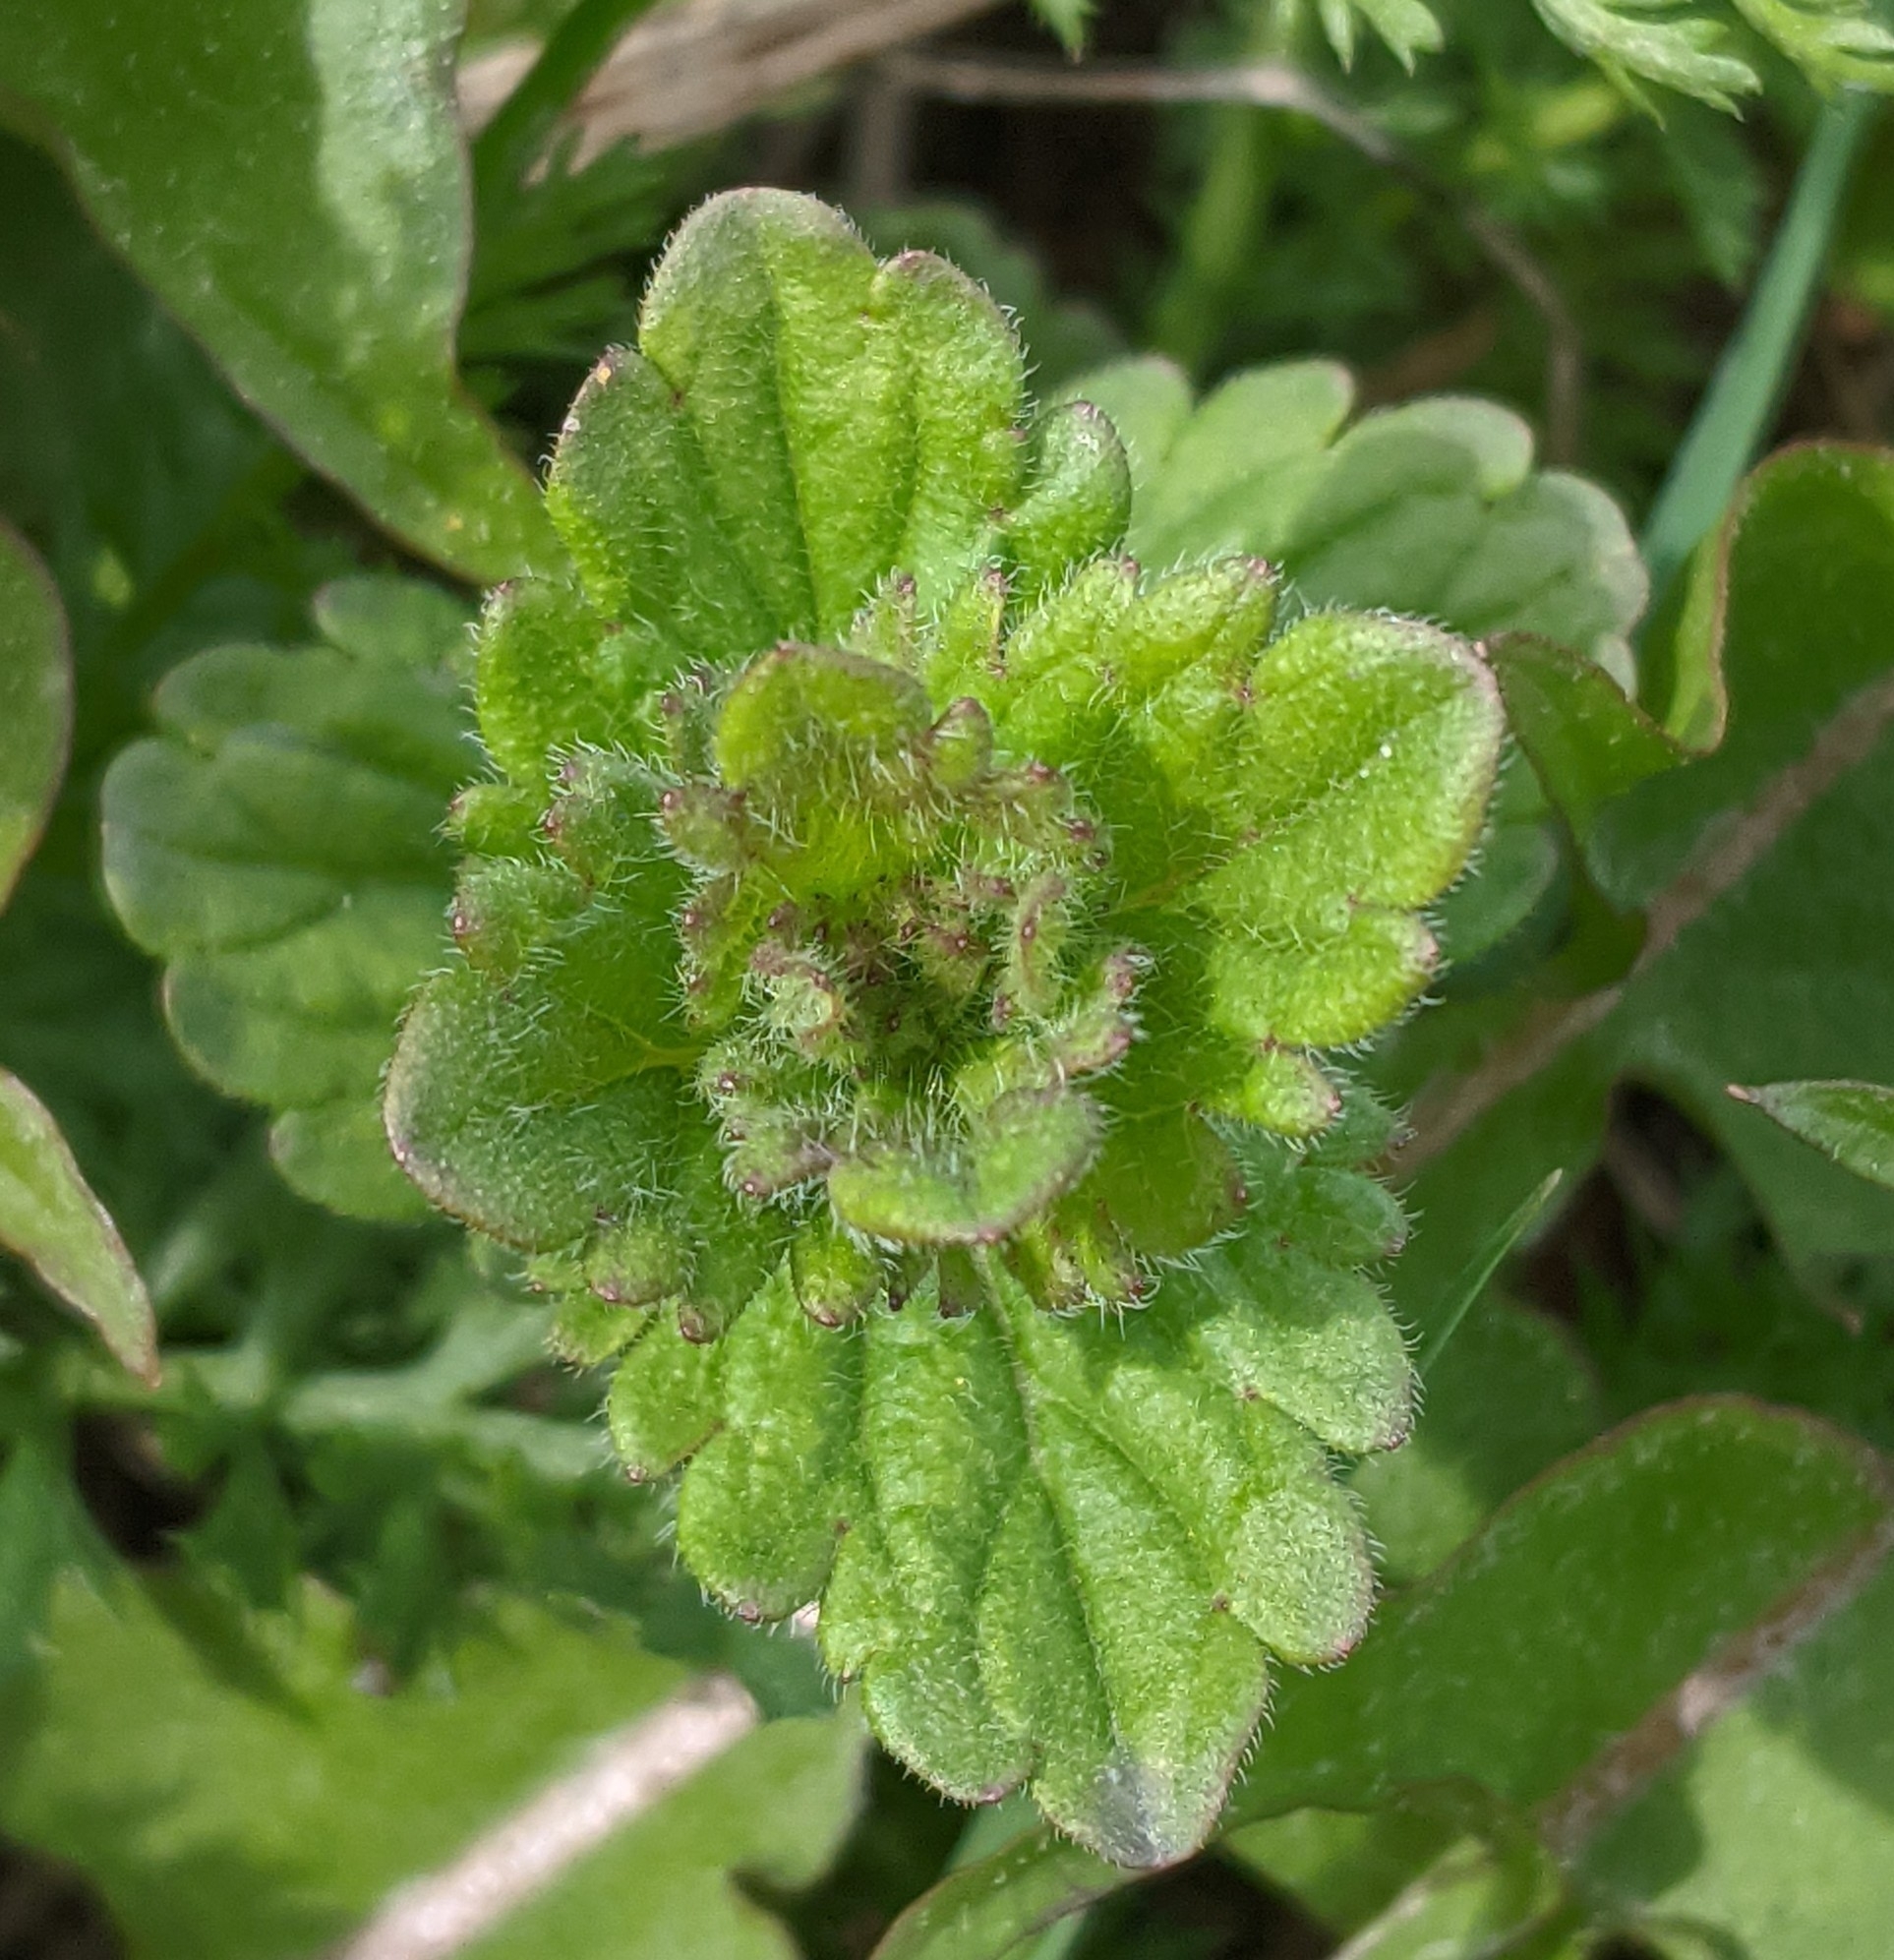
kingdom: Plantae
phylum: Tracheophyta
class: Magnoliopsida
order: Lamiales
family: Plantaginaceae
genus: Veronica
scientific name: Veronica chamaedrys
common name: Germander speedwell
